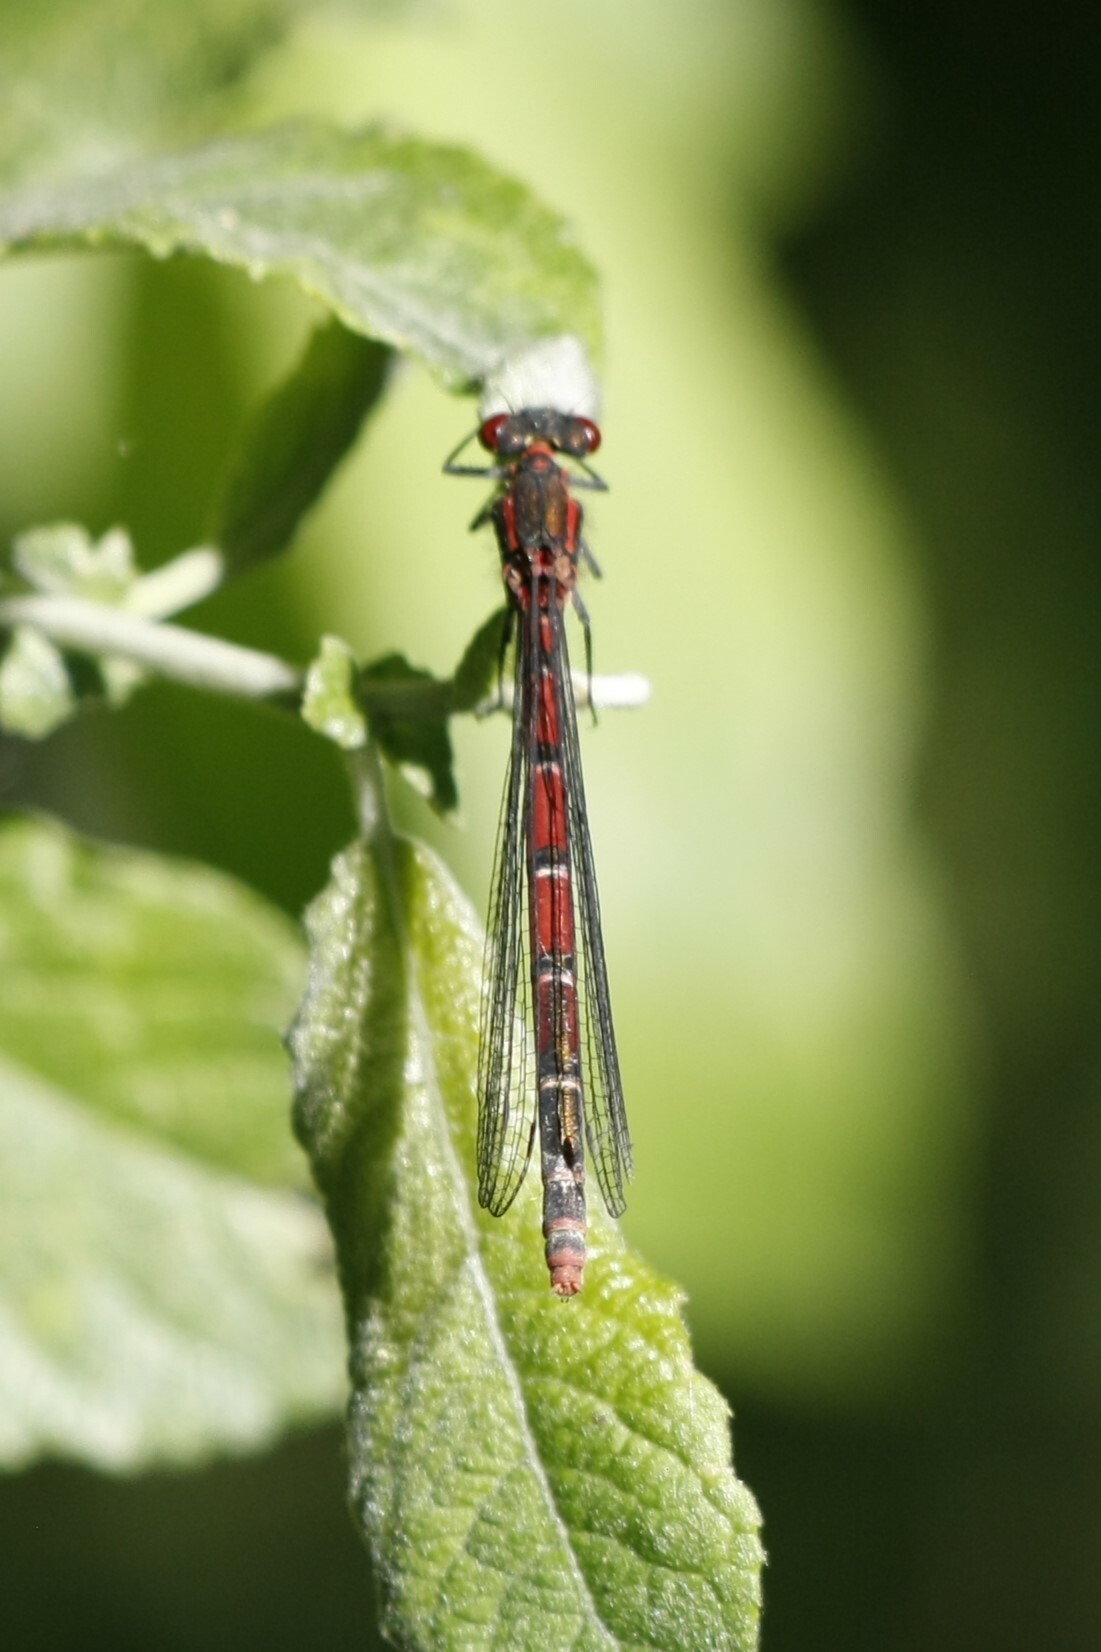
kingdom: Animalia
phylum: Arthropoda
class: Insecta
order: Odonata
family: Coenagrionidae
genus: Pyrrhosoma
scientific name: Pyrrhosoma nymphula
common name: Large red damsel
